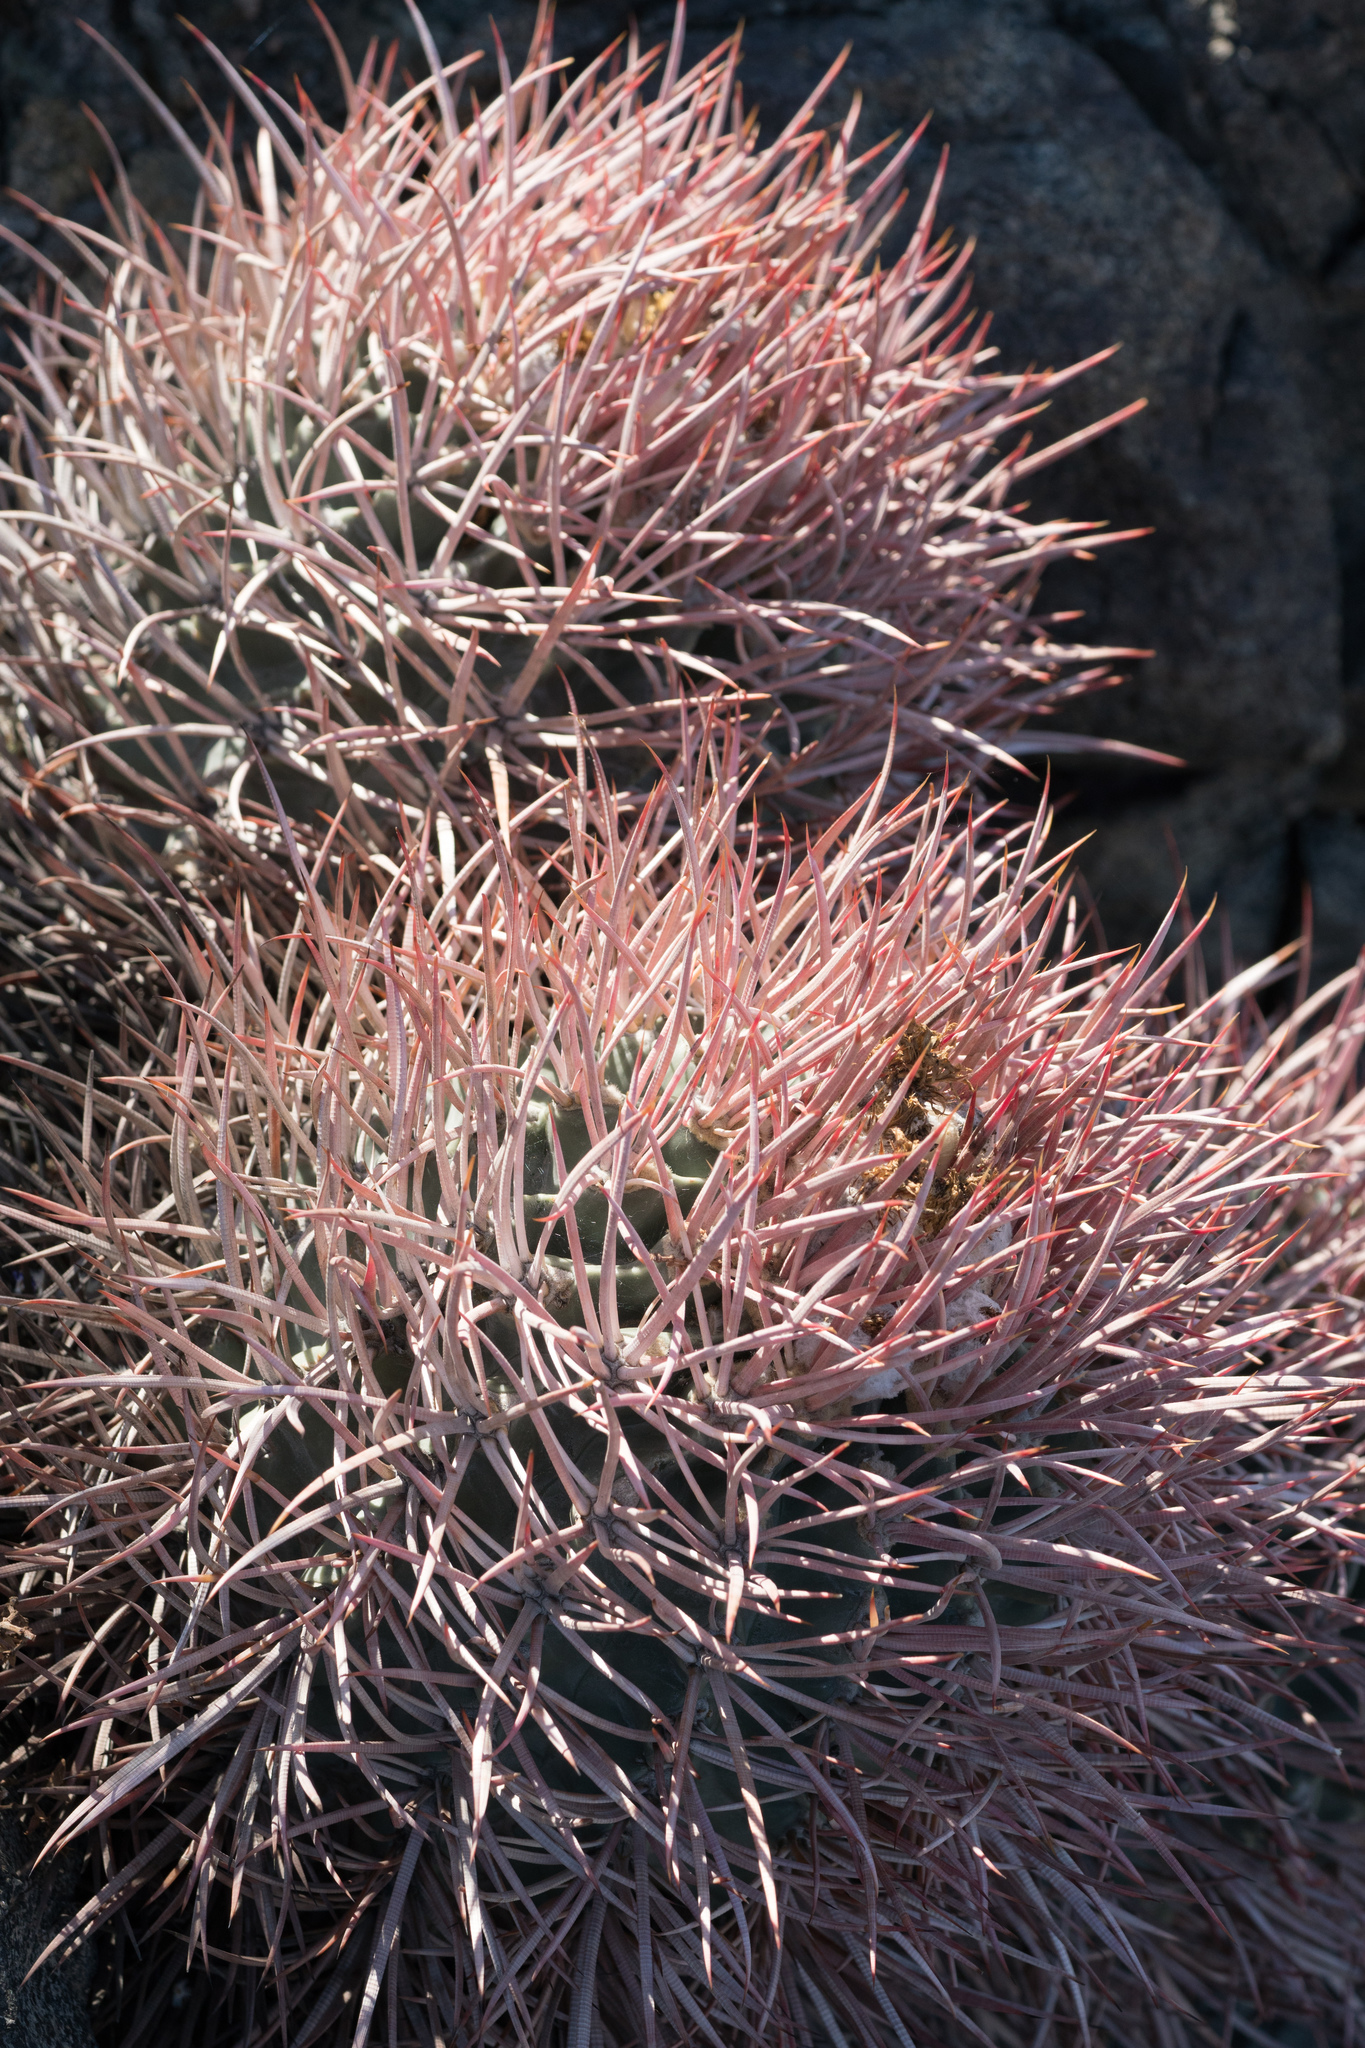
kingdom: Plantae
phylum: Tracheophyta
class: Magnoliopsida
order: Caryophyllales
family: Cactaceae
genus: Echinocactus
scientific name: Echinocactus polycephalus
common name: Cottontop cactus
